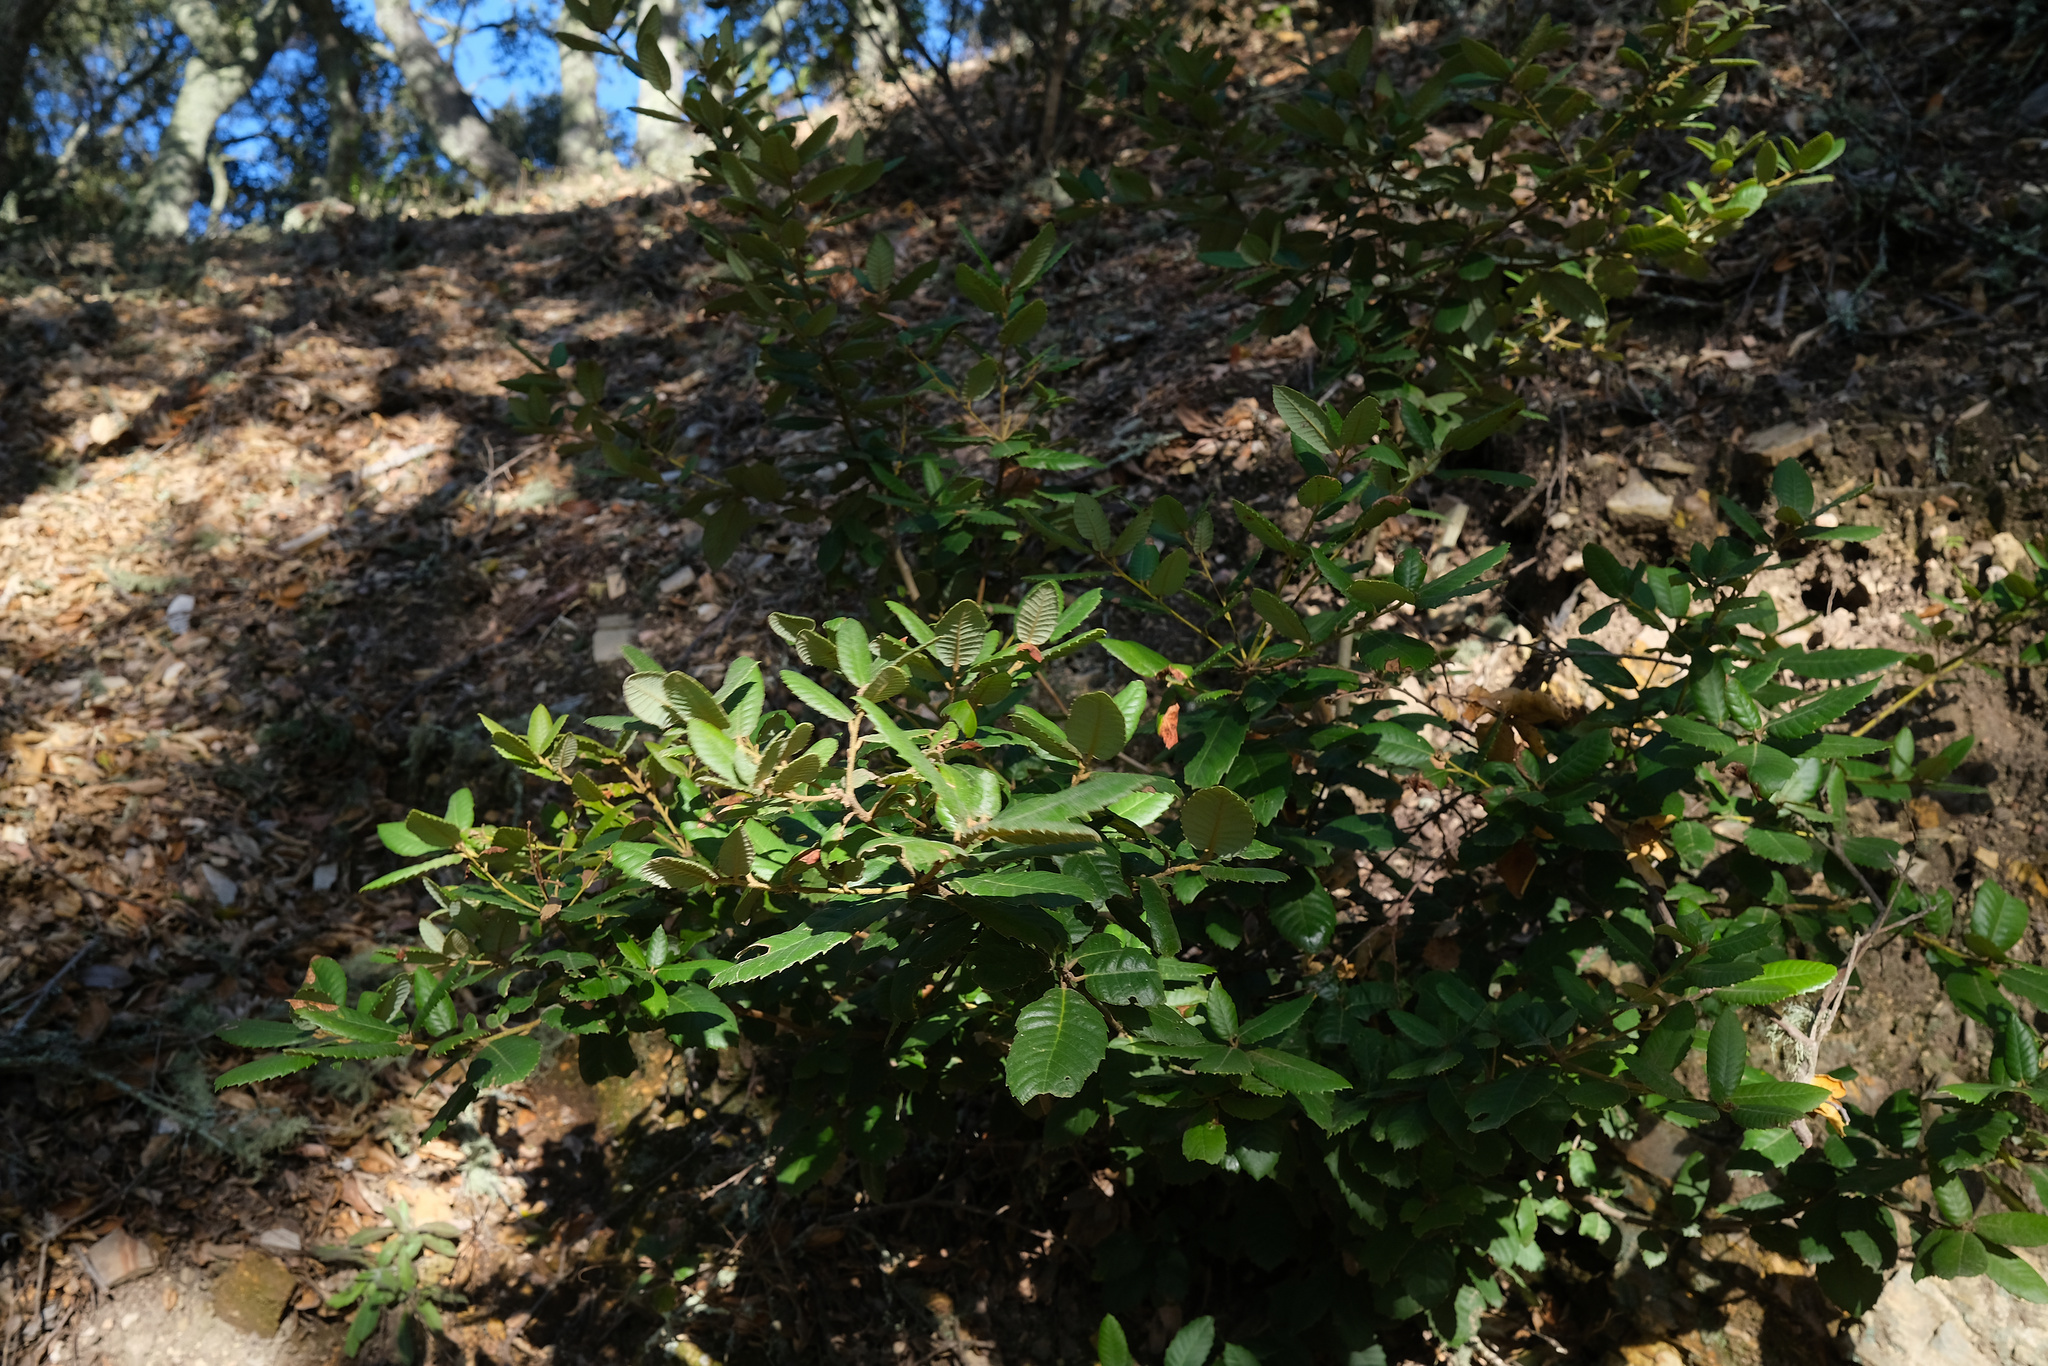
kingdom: Plantae
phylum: Tracheophyta
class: Magnoliopsida
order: Fagales
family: Fagaceae
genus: Notholithocarpus
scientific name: Notholithocarpus densiflorus
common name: Tan bark oak
